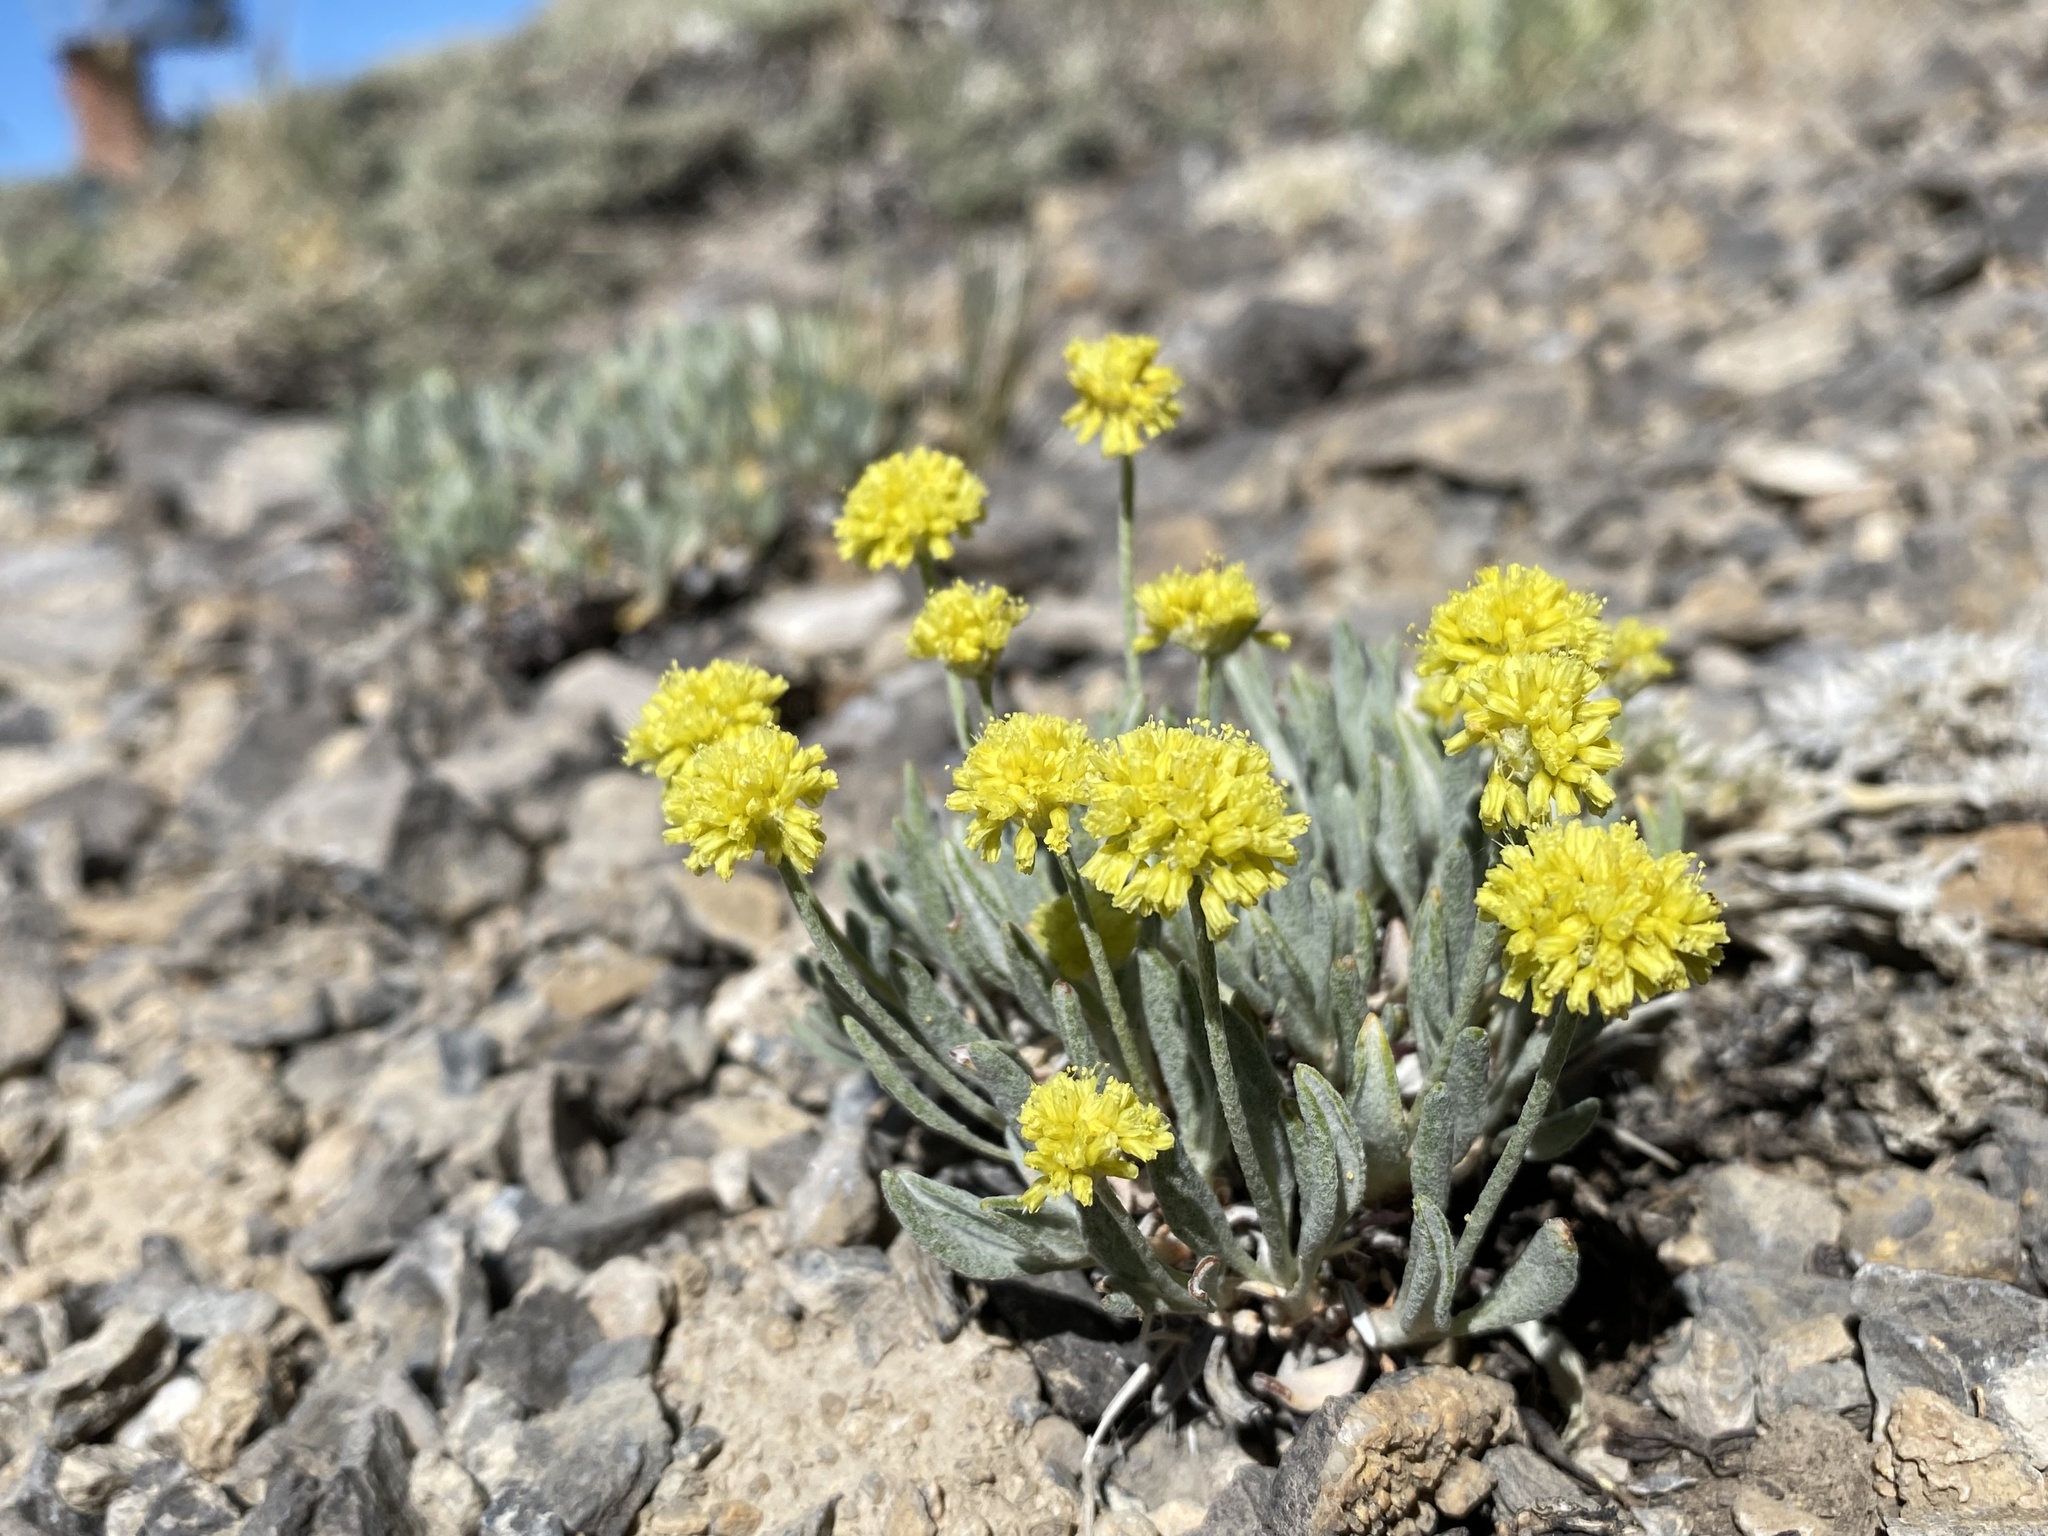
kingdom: Plantae
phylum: Tracheophyta
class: Magnoliopsida
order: Caryophyllales
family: Polygonaceae
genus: Eriogonum
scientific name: Eriogonum desertorum
